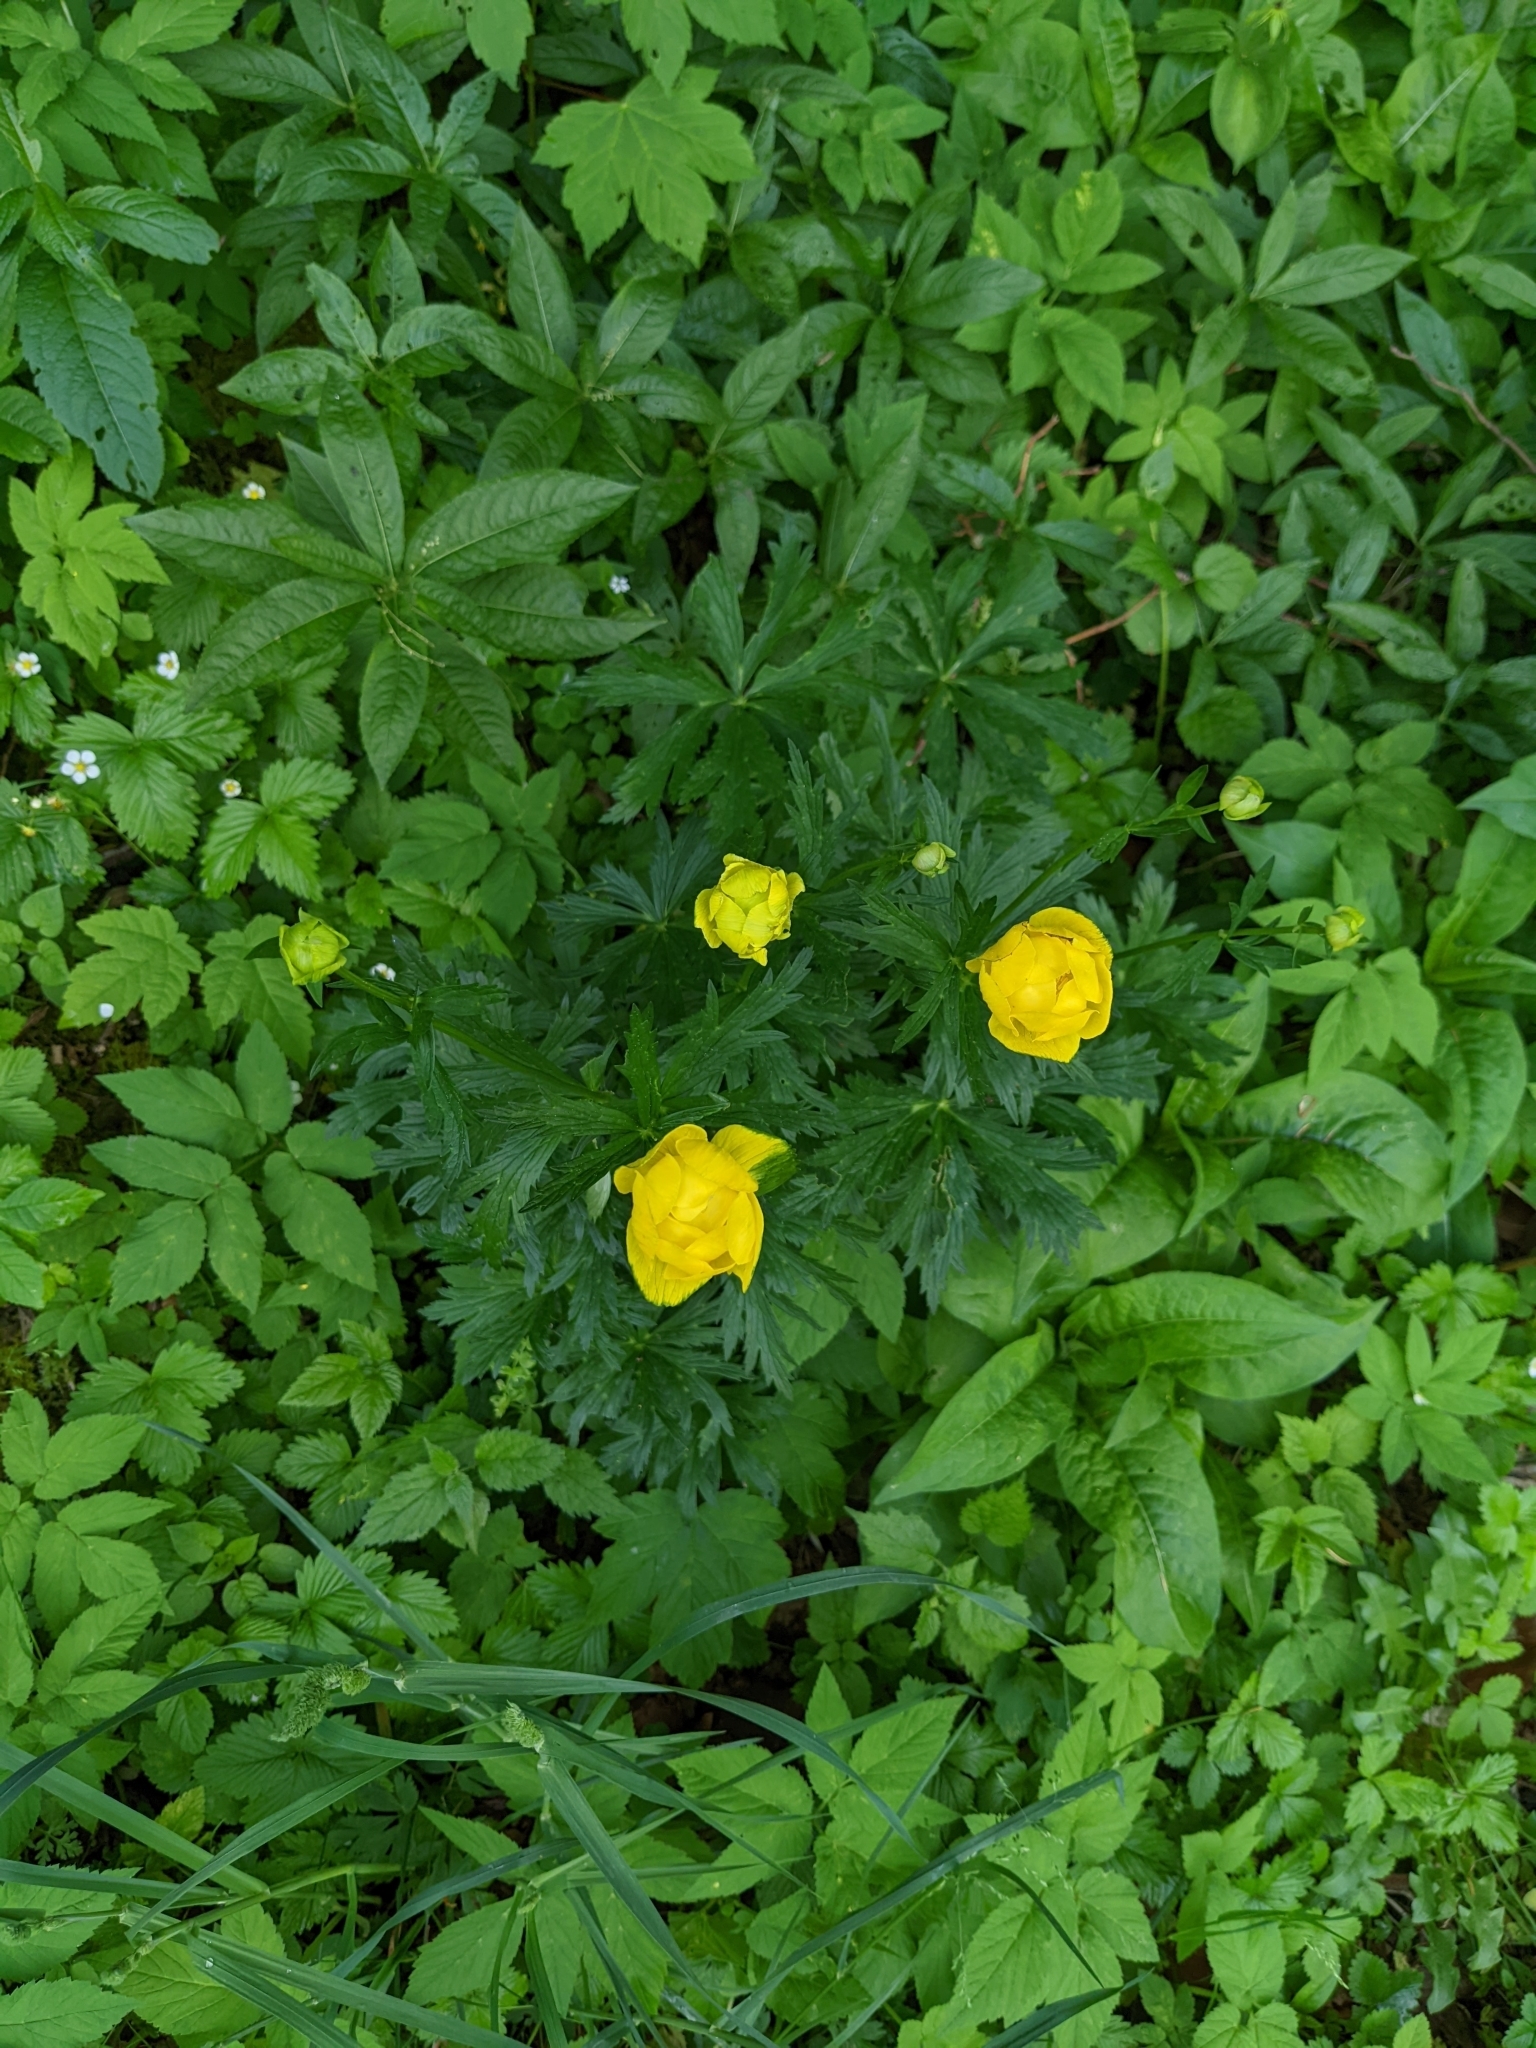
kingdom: Plantae
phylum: Tracheophyta
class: Magnoliopsida
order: Ranunculales
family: Ranunculaceae
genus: Trollius
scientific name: Trollius europaeus
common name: European globeflower
